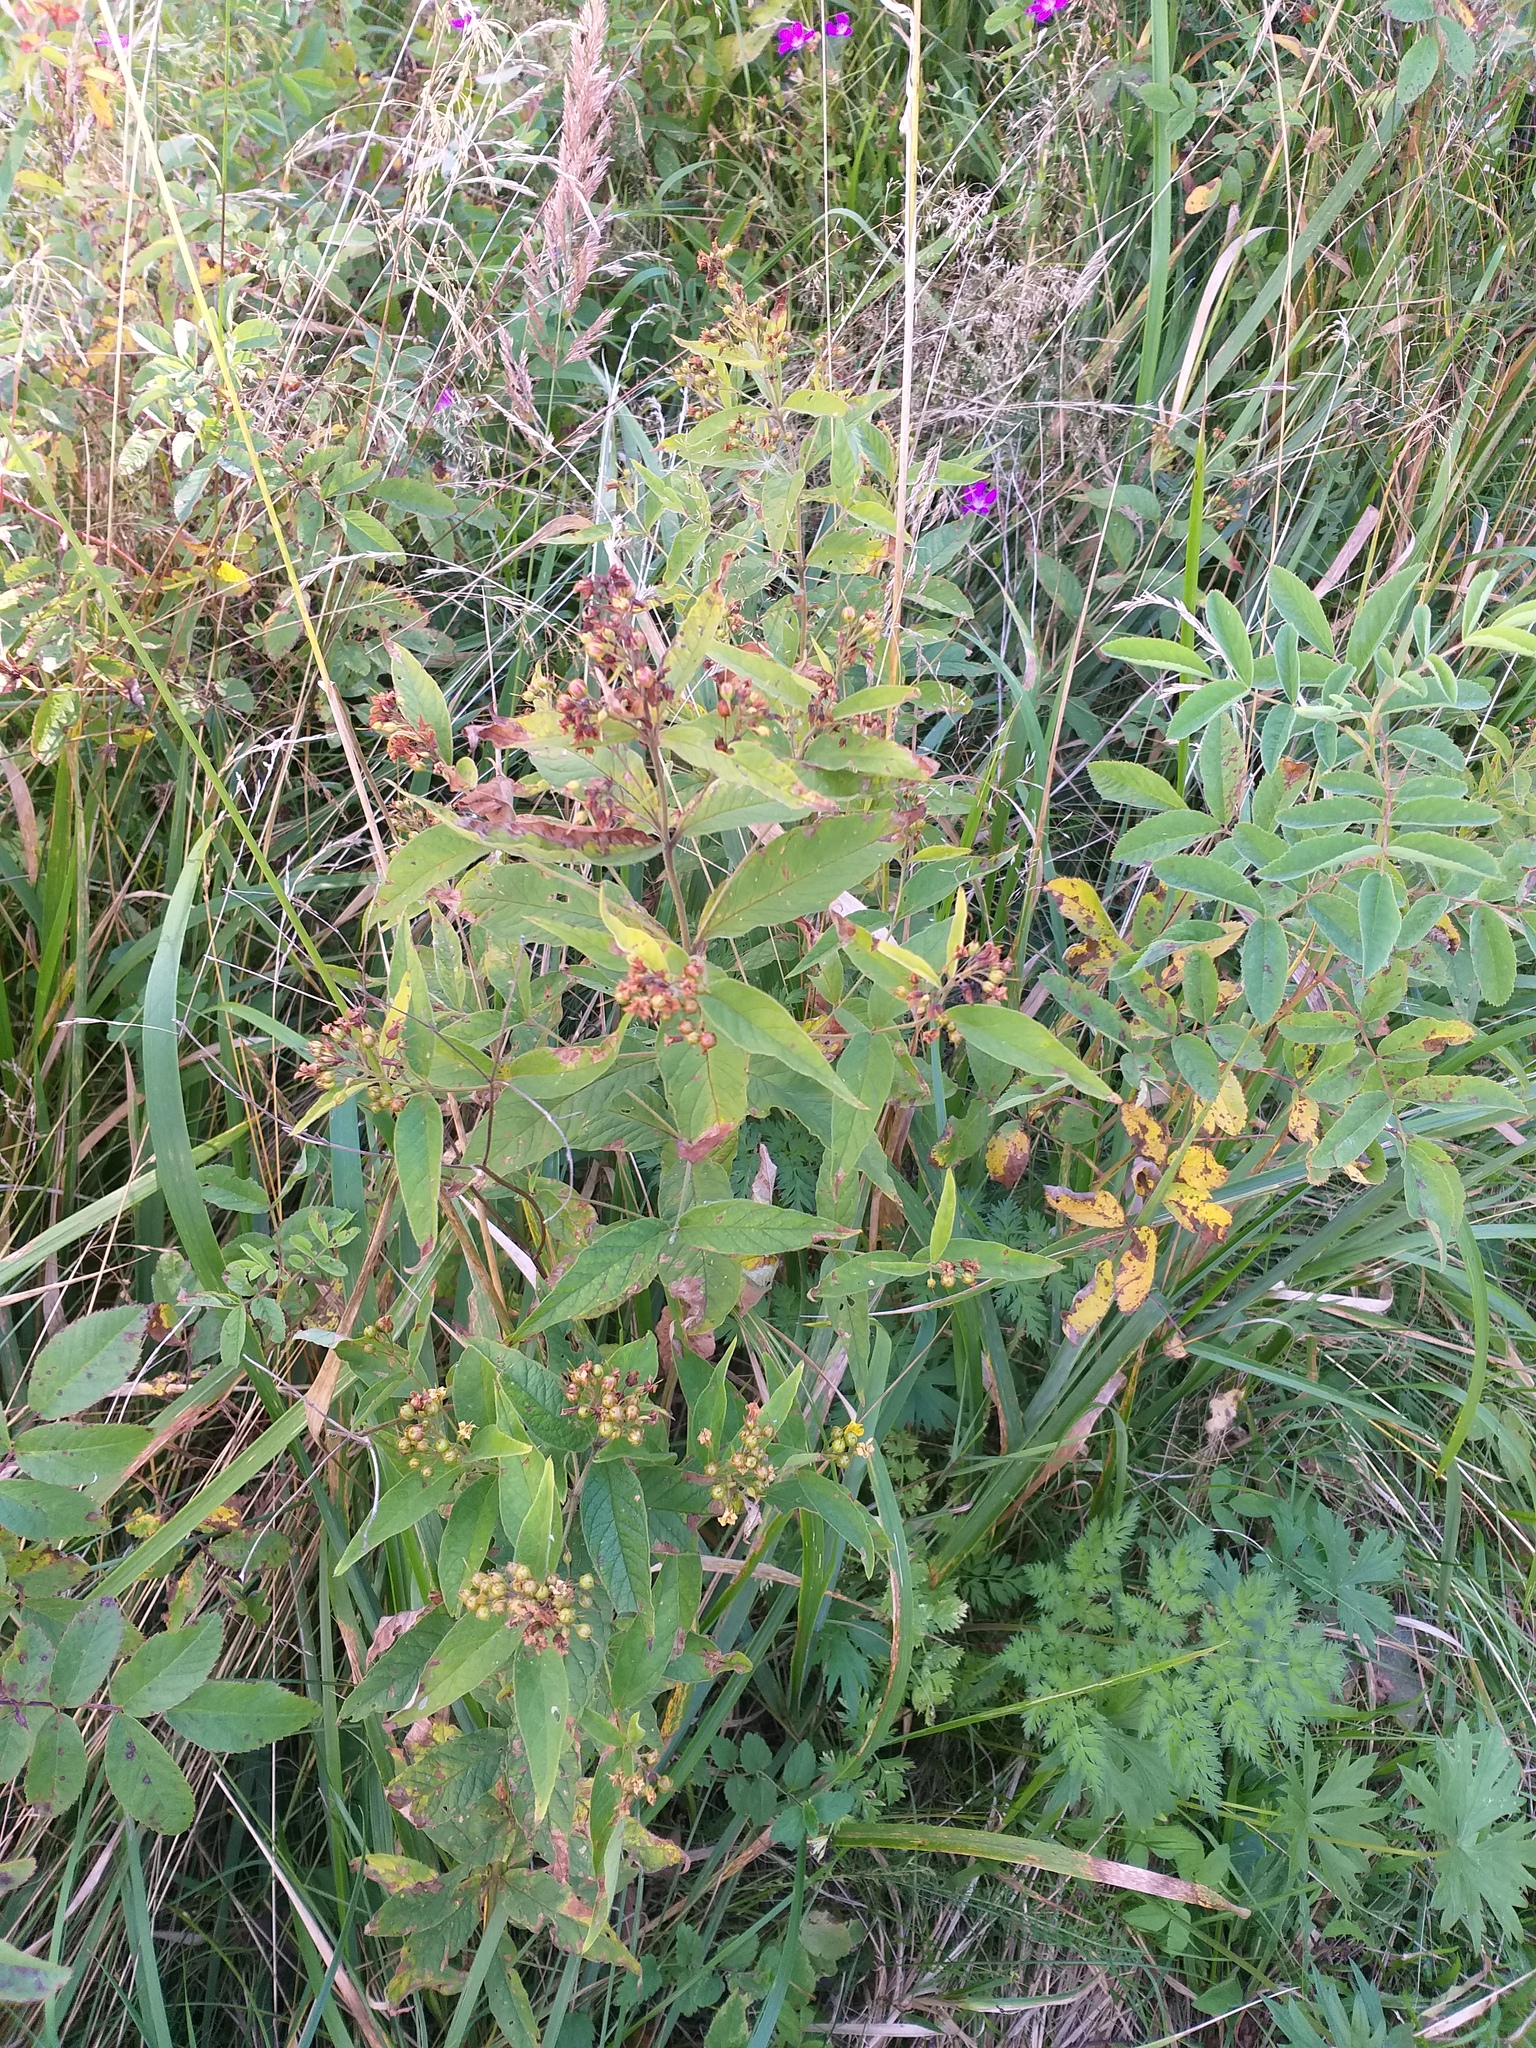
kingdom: Plantae
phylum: Tracheophyta
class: Magnoliopsida
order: Ericales
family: Primulaceae
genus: Lysimachia
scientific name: Lysimachia vulgaris
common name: Yellow loosestrife
